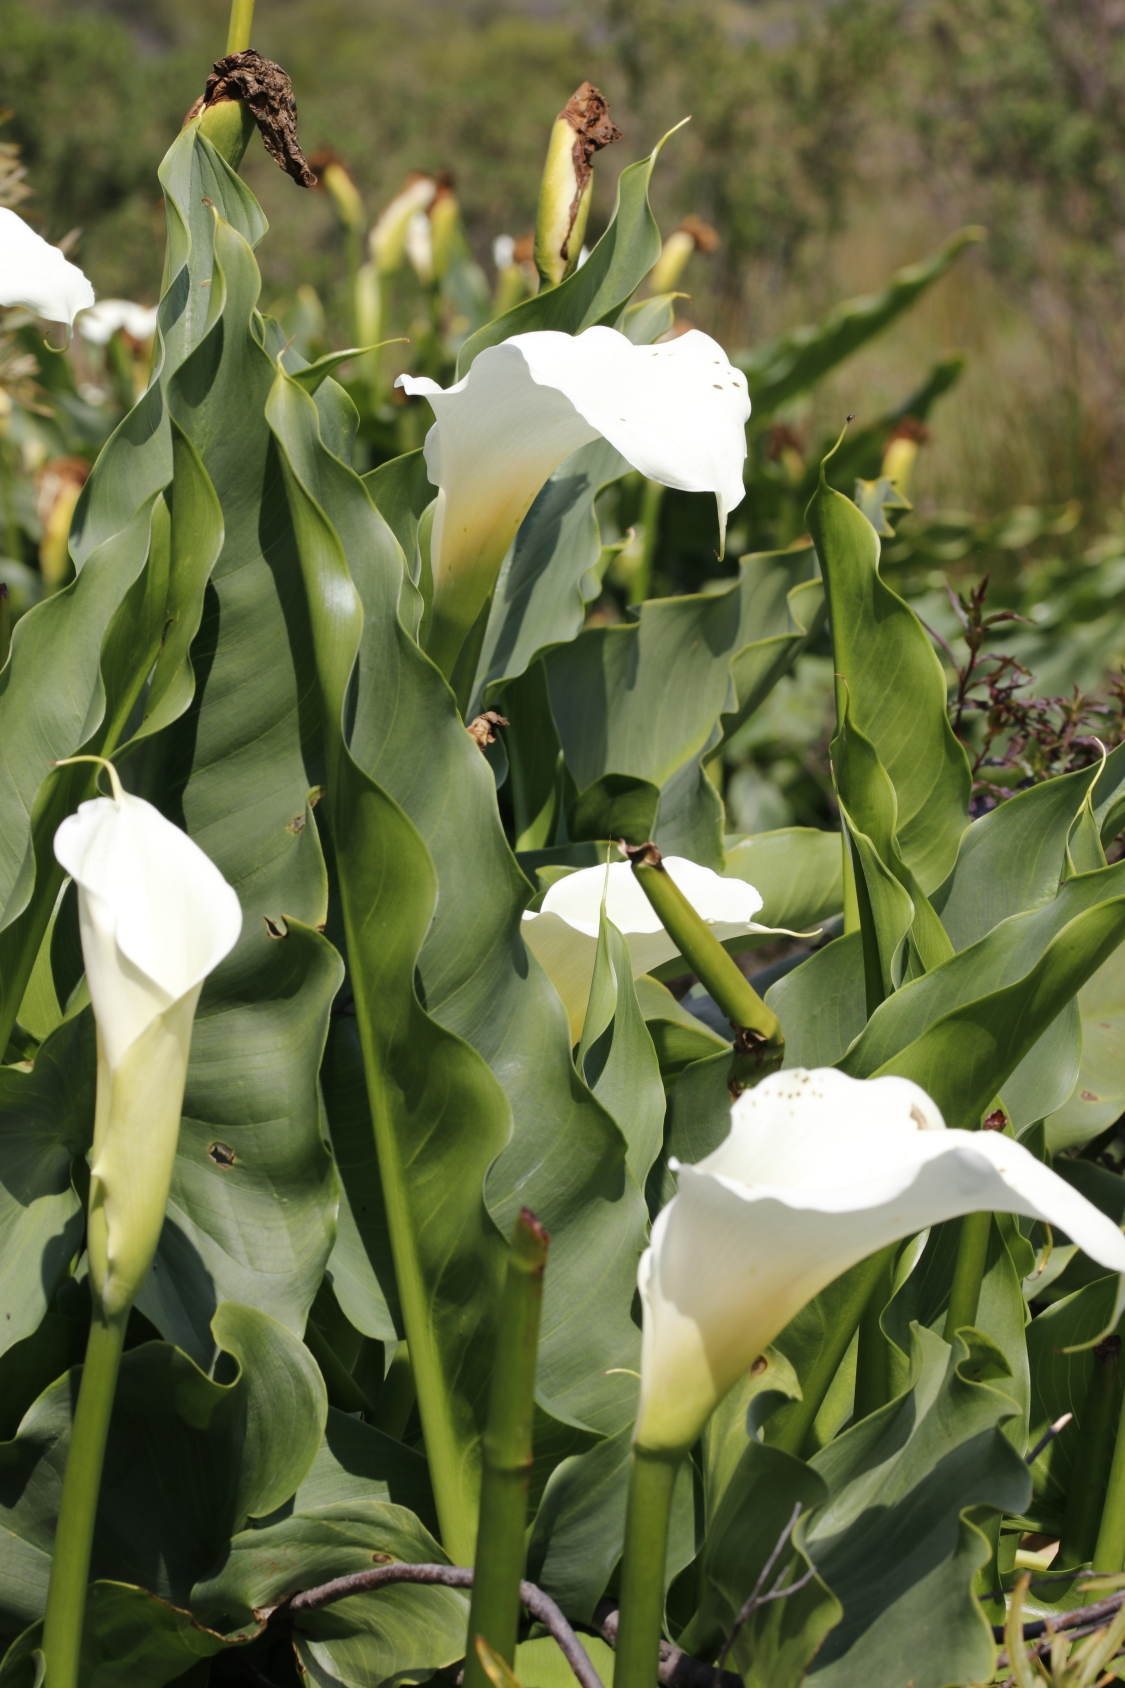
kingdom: Plantae
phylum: Tracheophyta
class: Liliopsida
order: Alismatales
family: Araceae
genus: Zantedeschia
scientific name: Zantedeschia aethiopica
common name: Altar-lily
